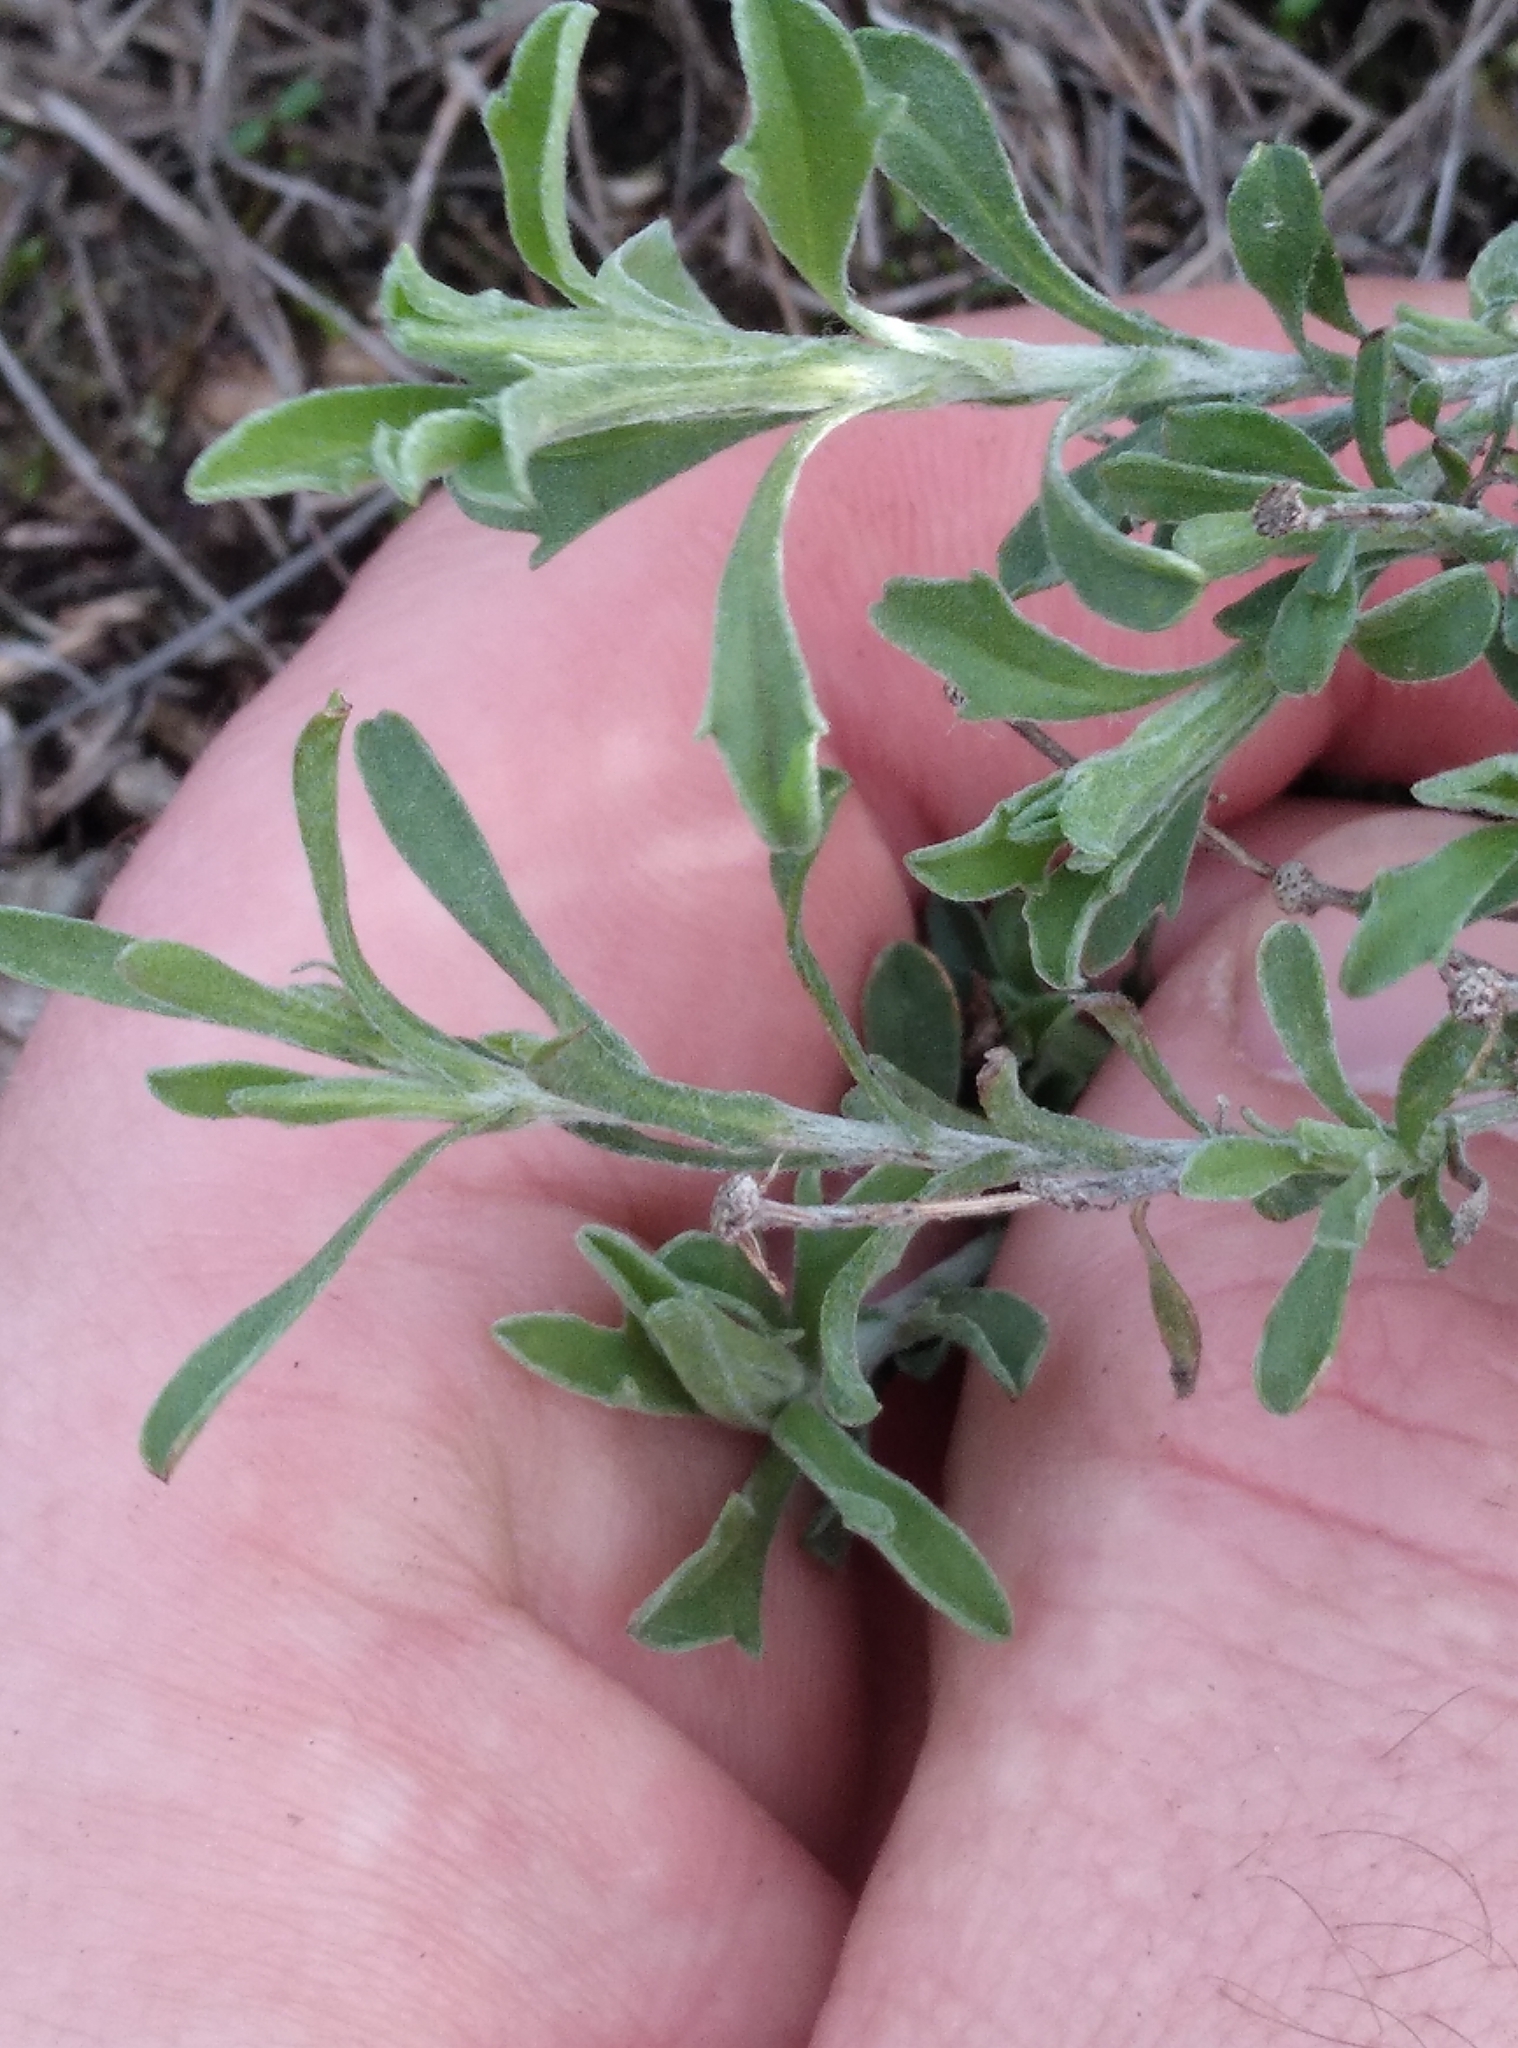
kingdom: Plantae
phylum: Tracheophyta
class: Magnoliopsida
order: Asterales
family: Asteraceae
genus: Vittadinia
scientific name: Vittadinia gracilis
